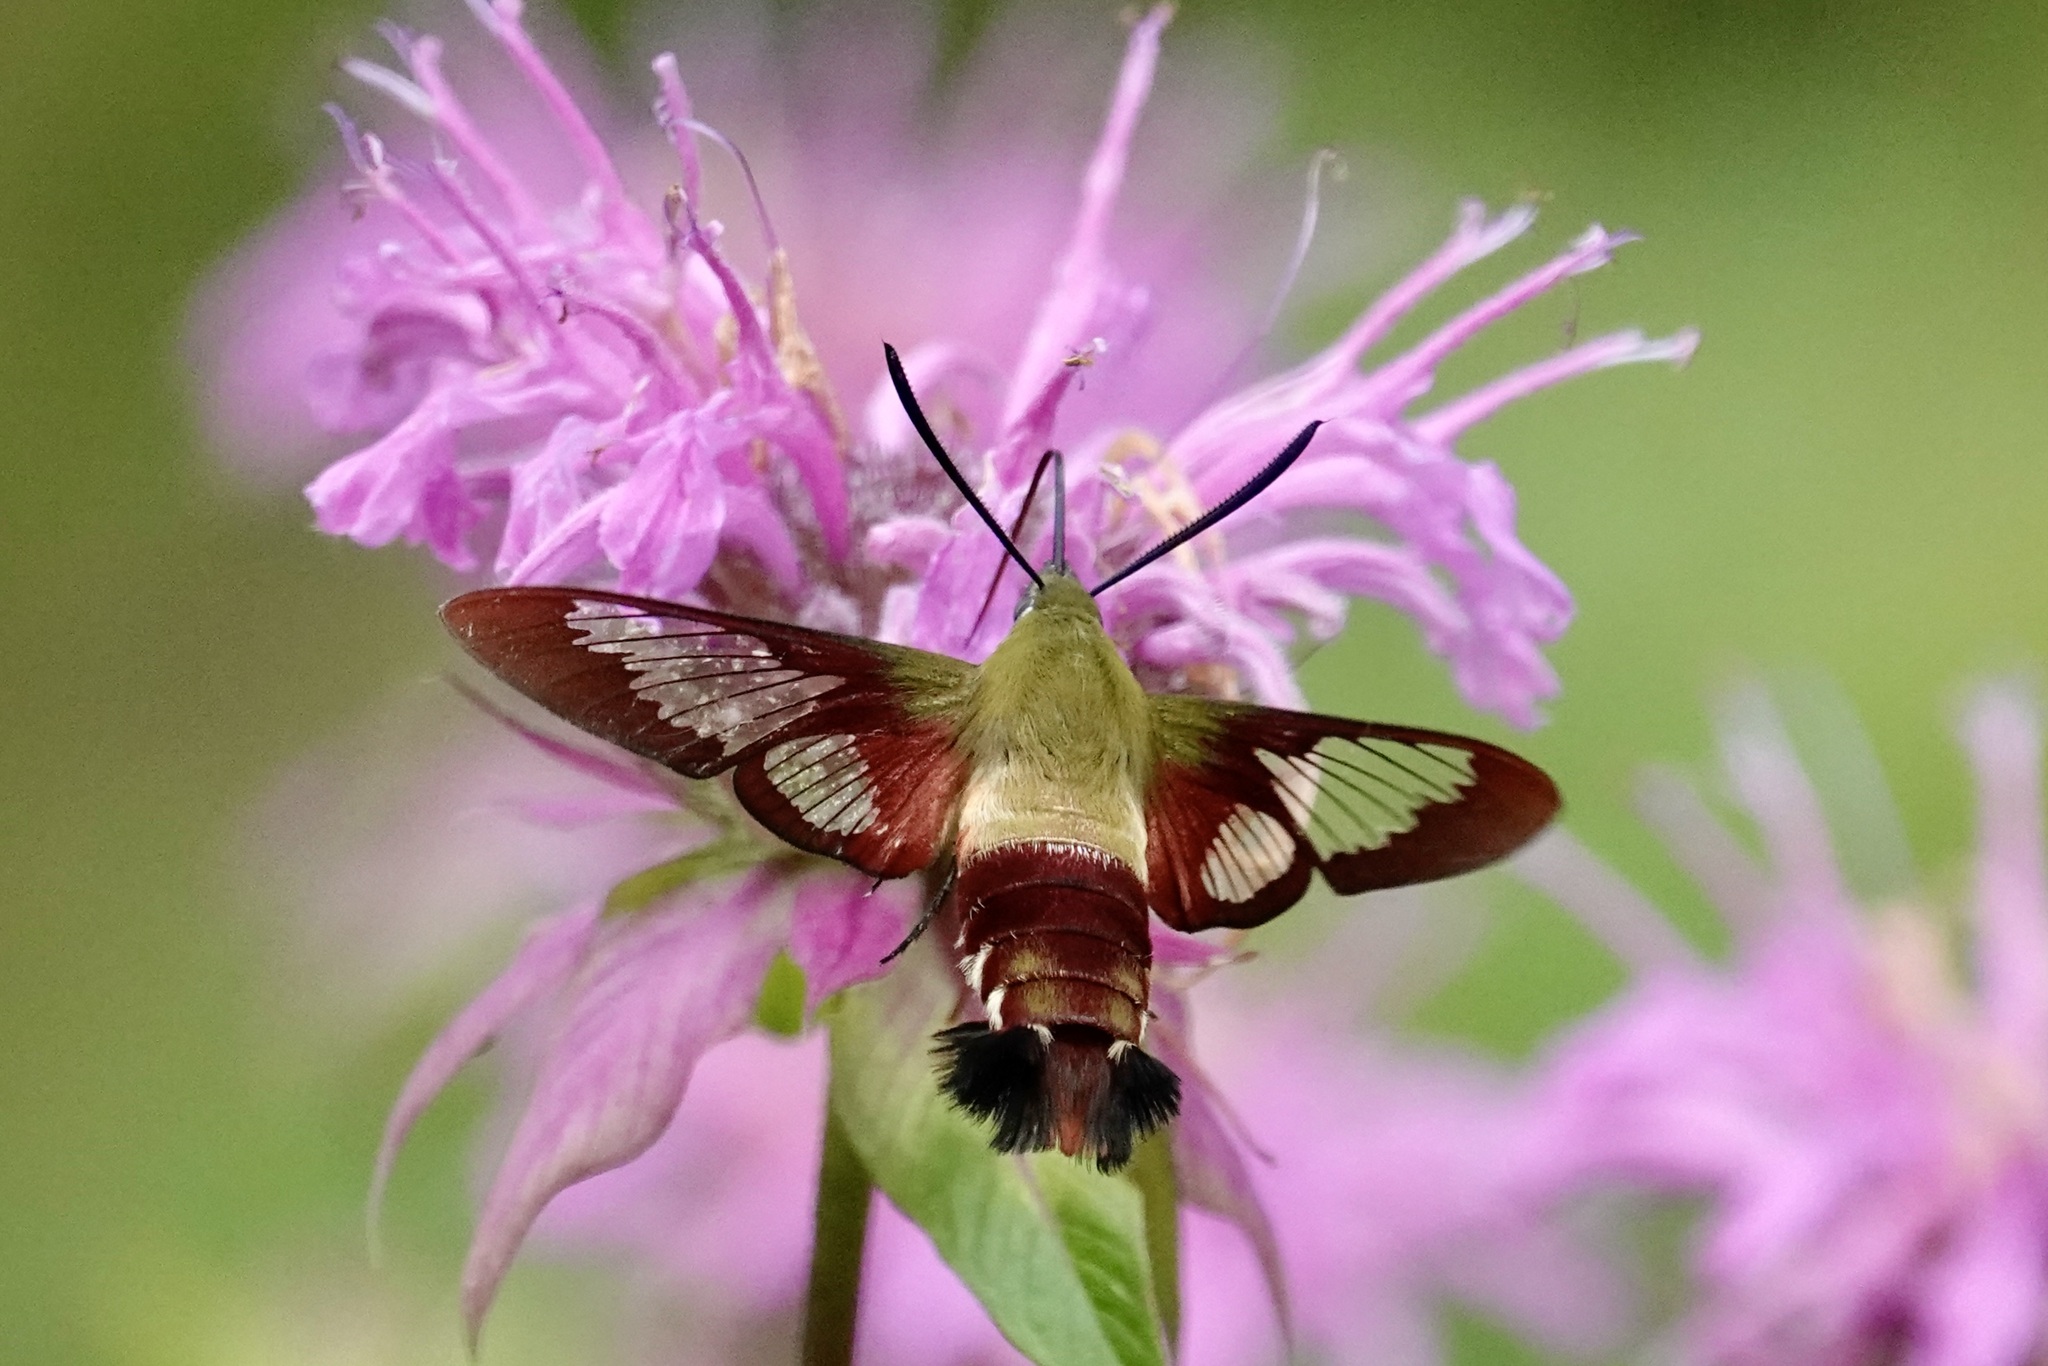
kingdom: Animalia
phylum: Arthropoda
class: Insecta
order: Lepidoptera
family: Sphingidae
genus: Hemaris
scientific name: Hemaris thysbe
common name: Common clear-wing
